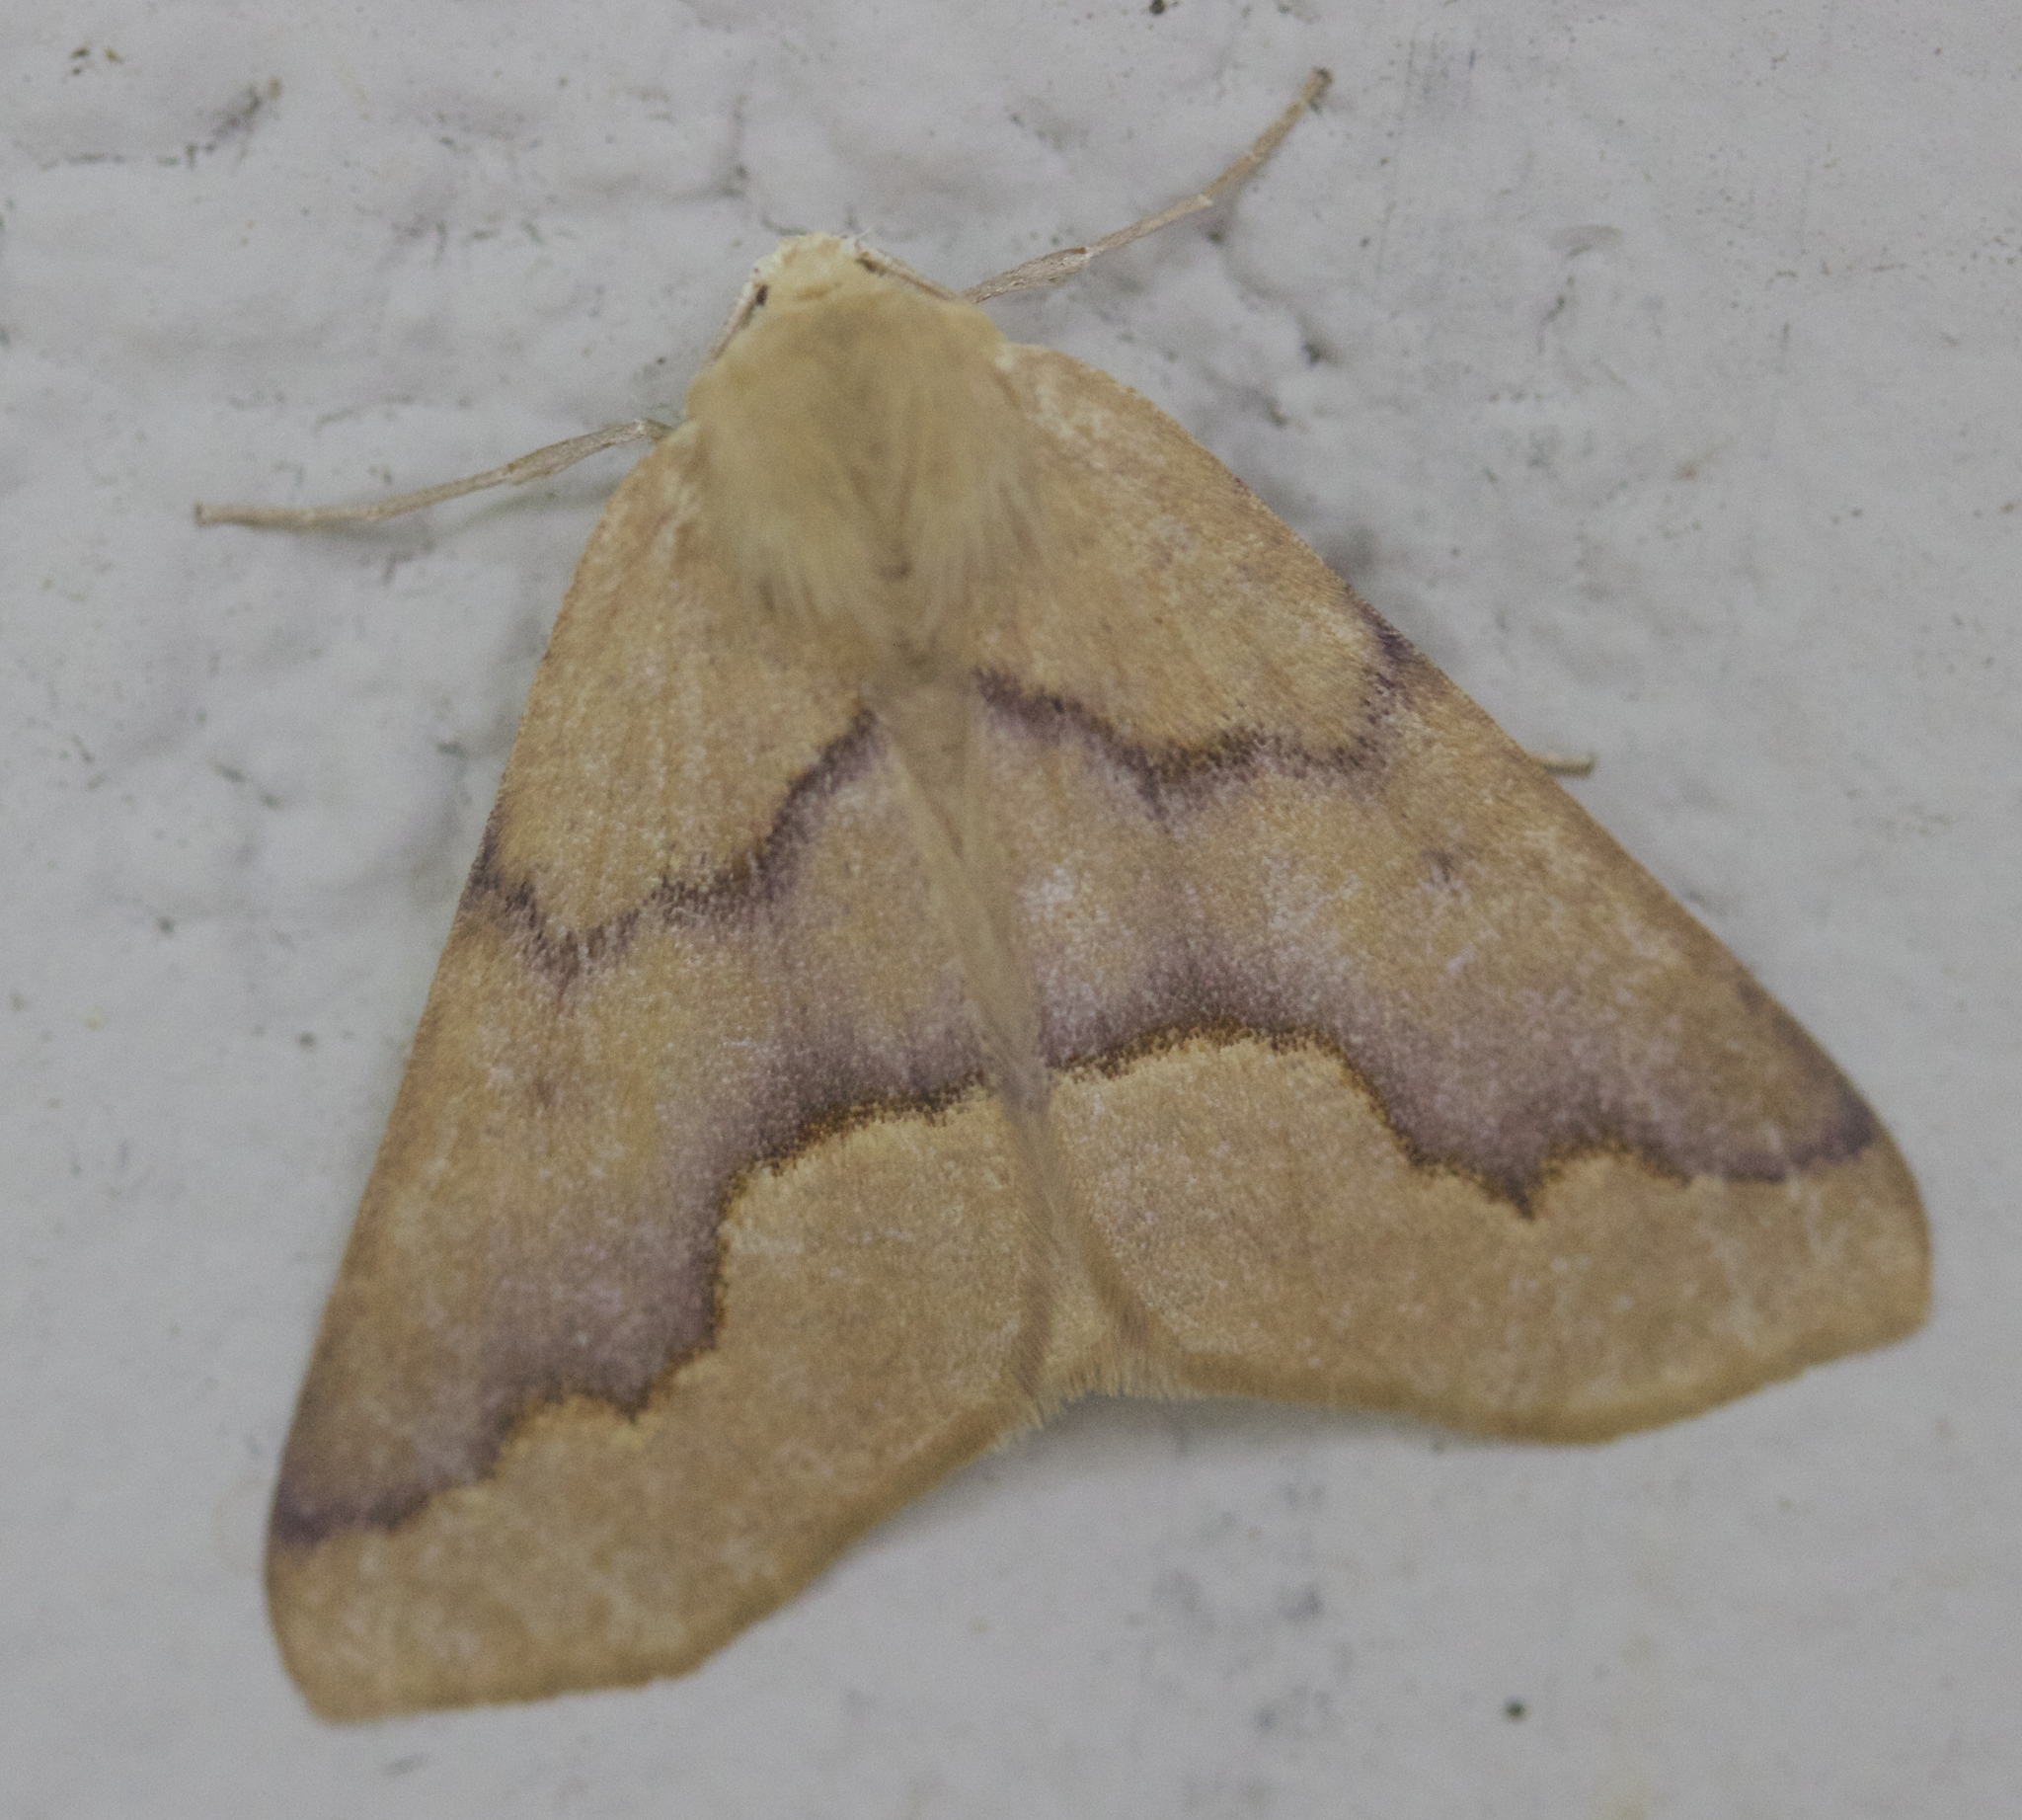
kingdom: Animalia
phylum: Arthropoda
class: Insecta
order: Lepidoptera
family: Geometridae
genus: Sabulodes
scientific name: Sabulodes spoliata
